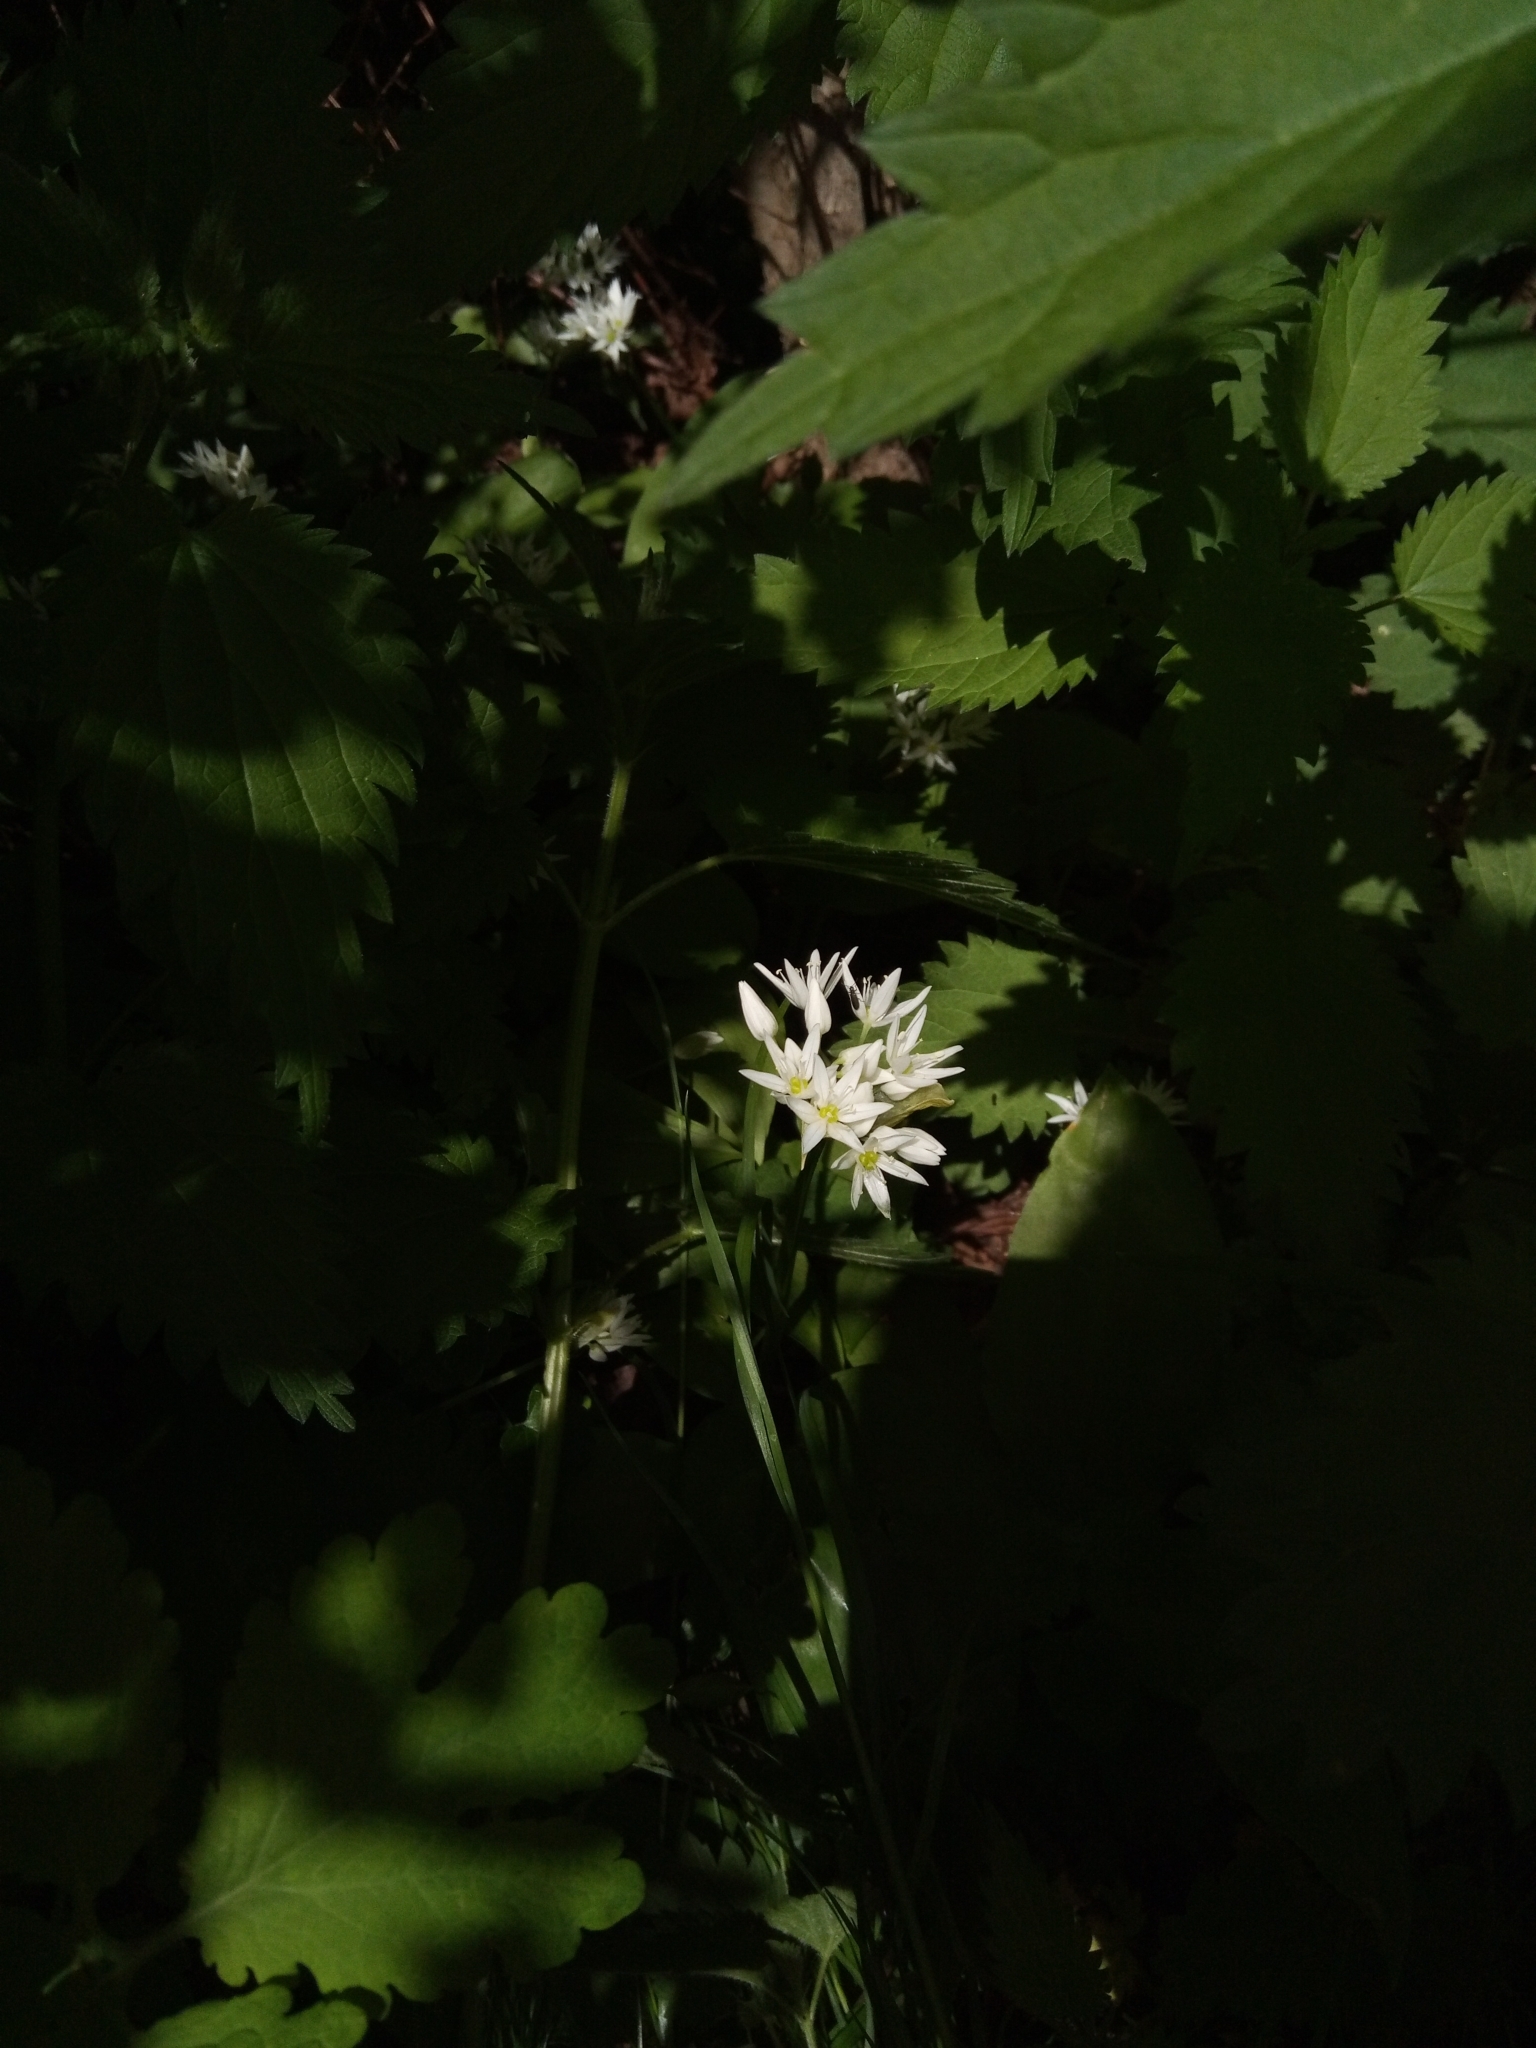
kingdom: Plantae
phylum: Tracheophyta
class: Liliopsida
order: Asparagales
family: Amaryllidaceae
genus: Allium
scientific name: Allium ursinum
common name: Ramsons
